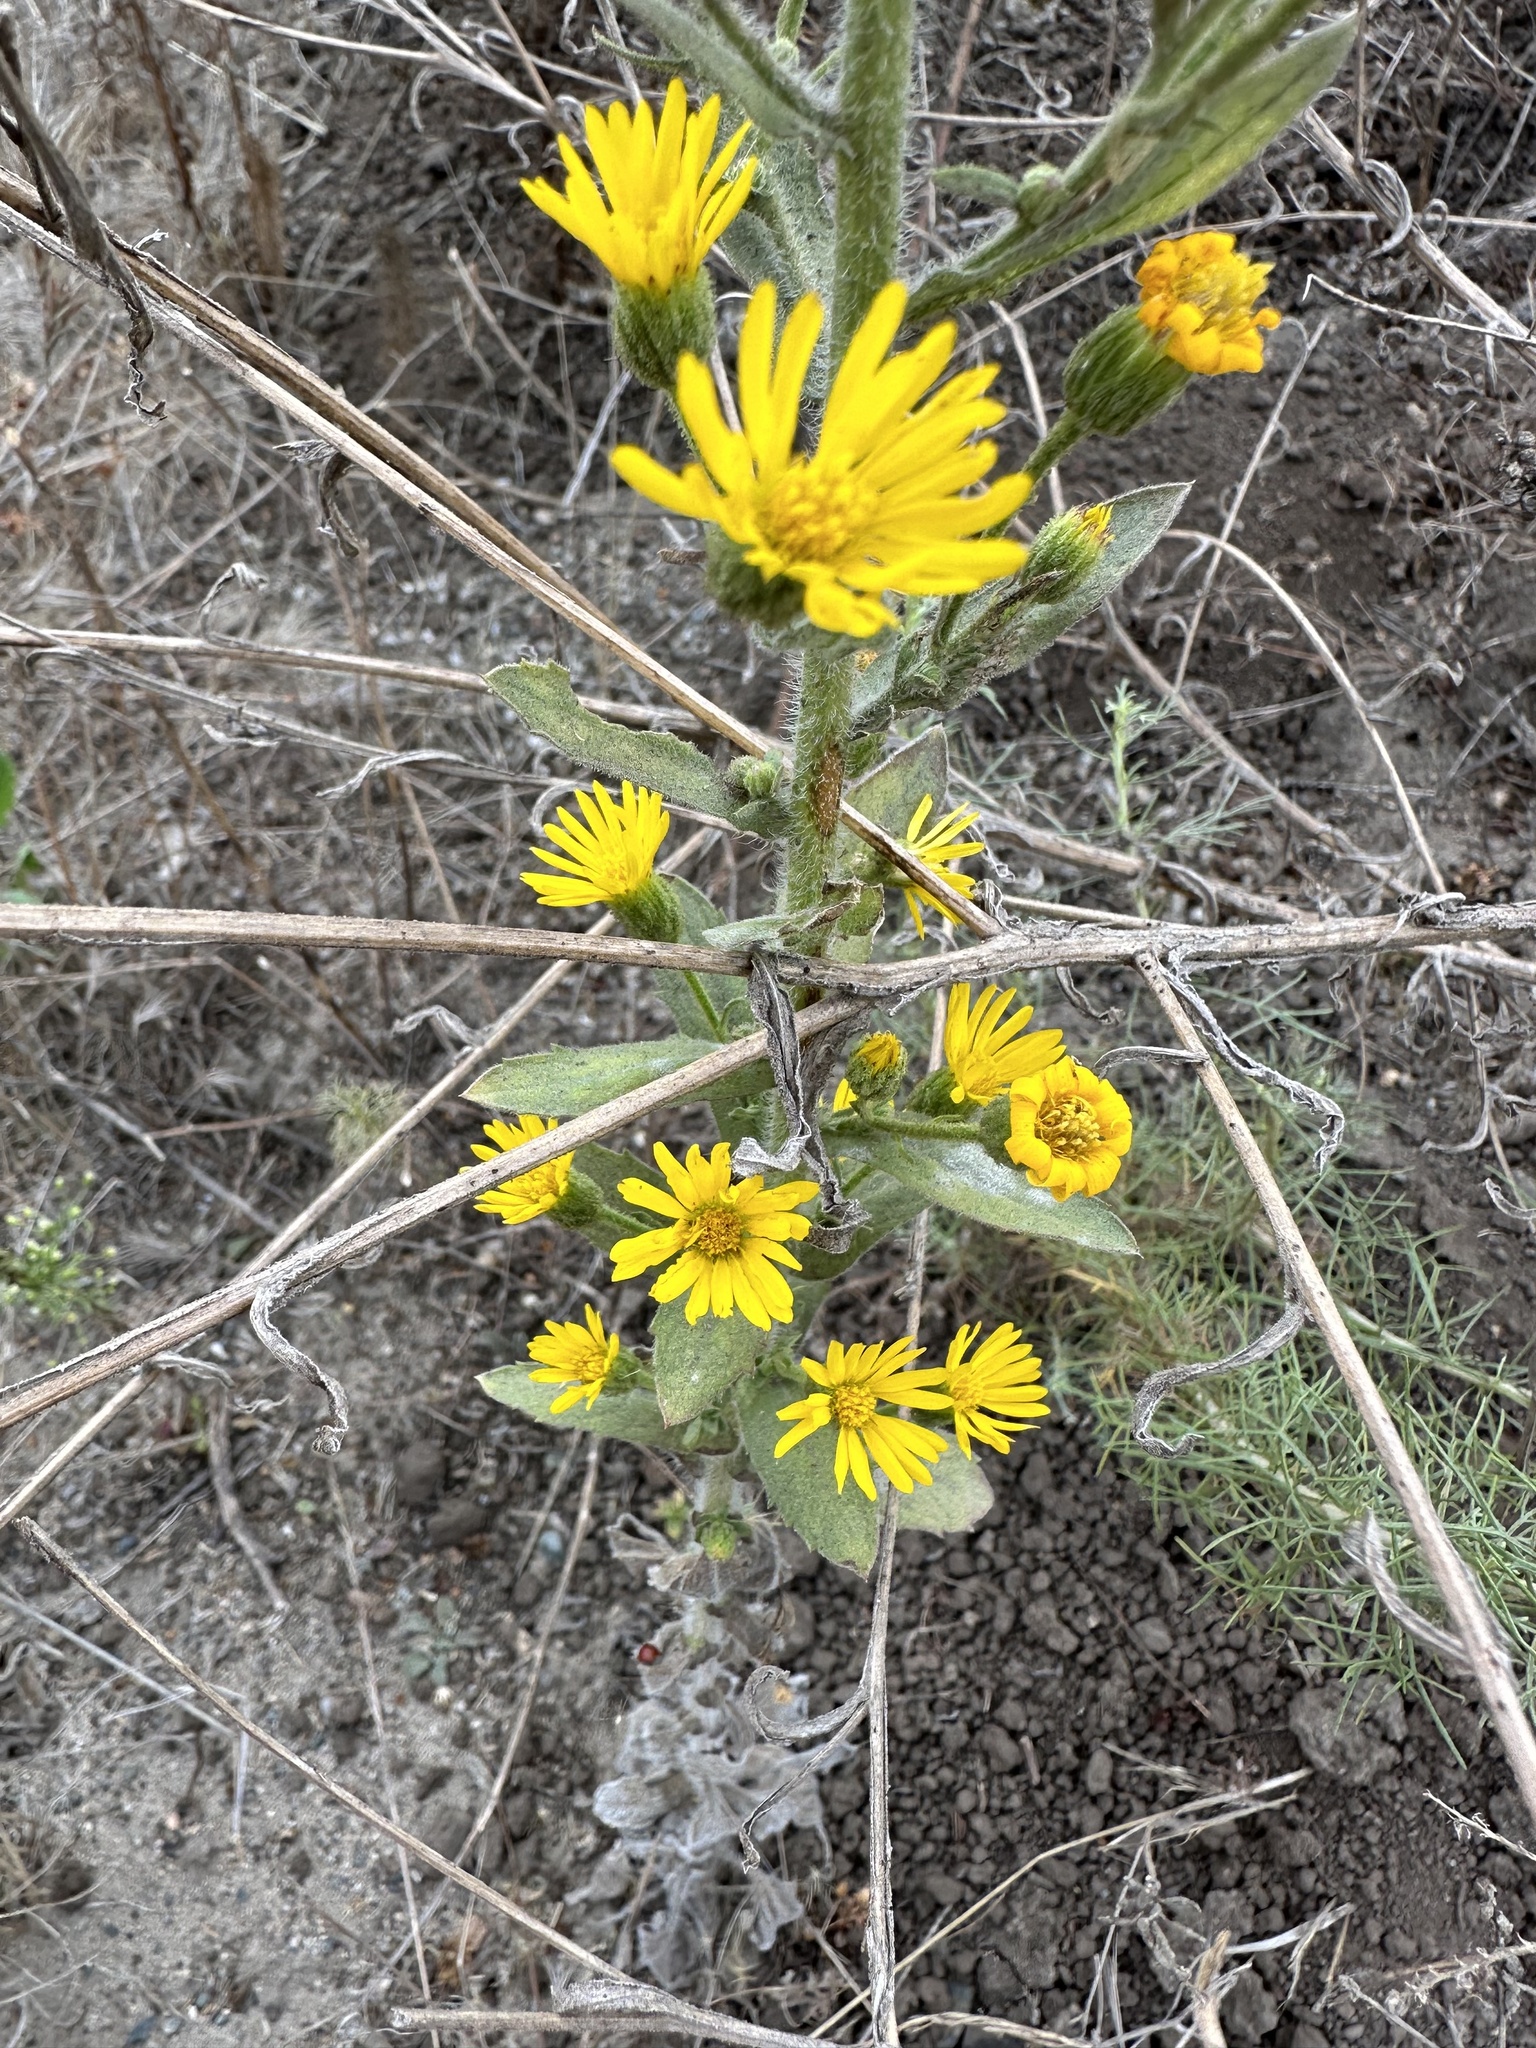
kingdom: Plantae
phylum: Tracheophyta
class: Magnoliopsida
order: Asterales
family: Asteraceae
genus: Heterotheca
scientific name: Heterotheca grandiflora
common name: Telegraphweed
